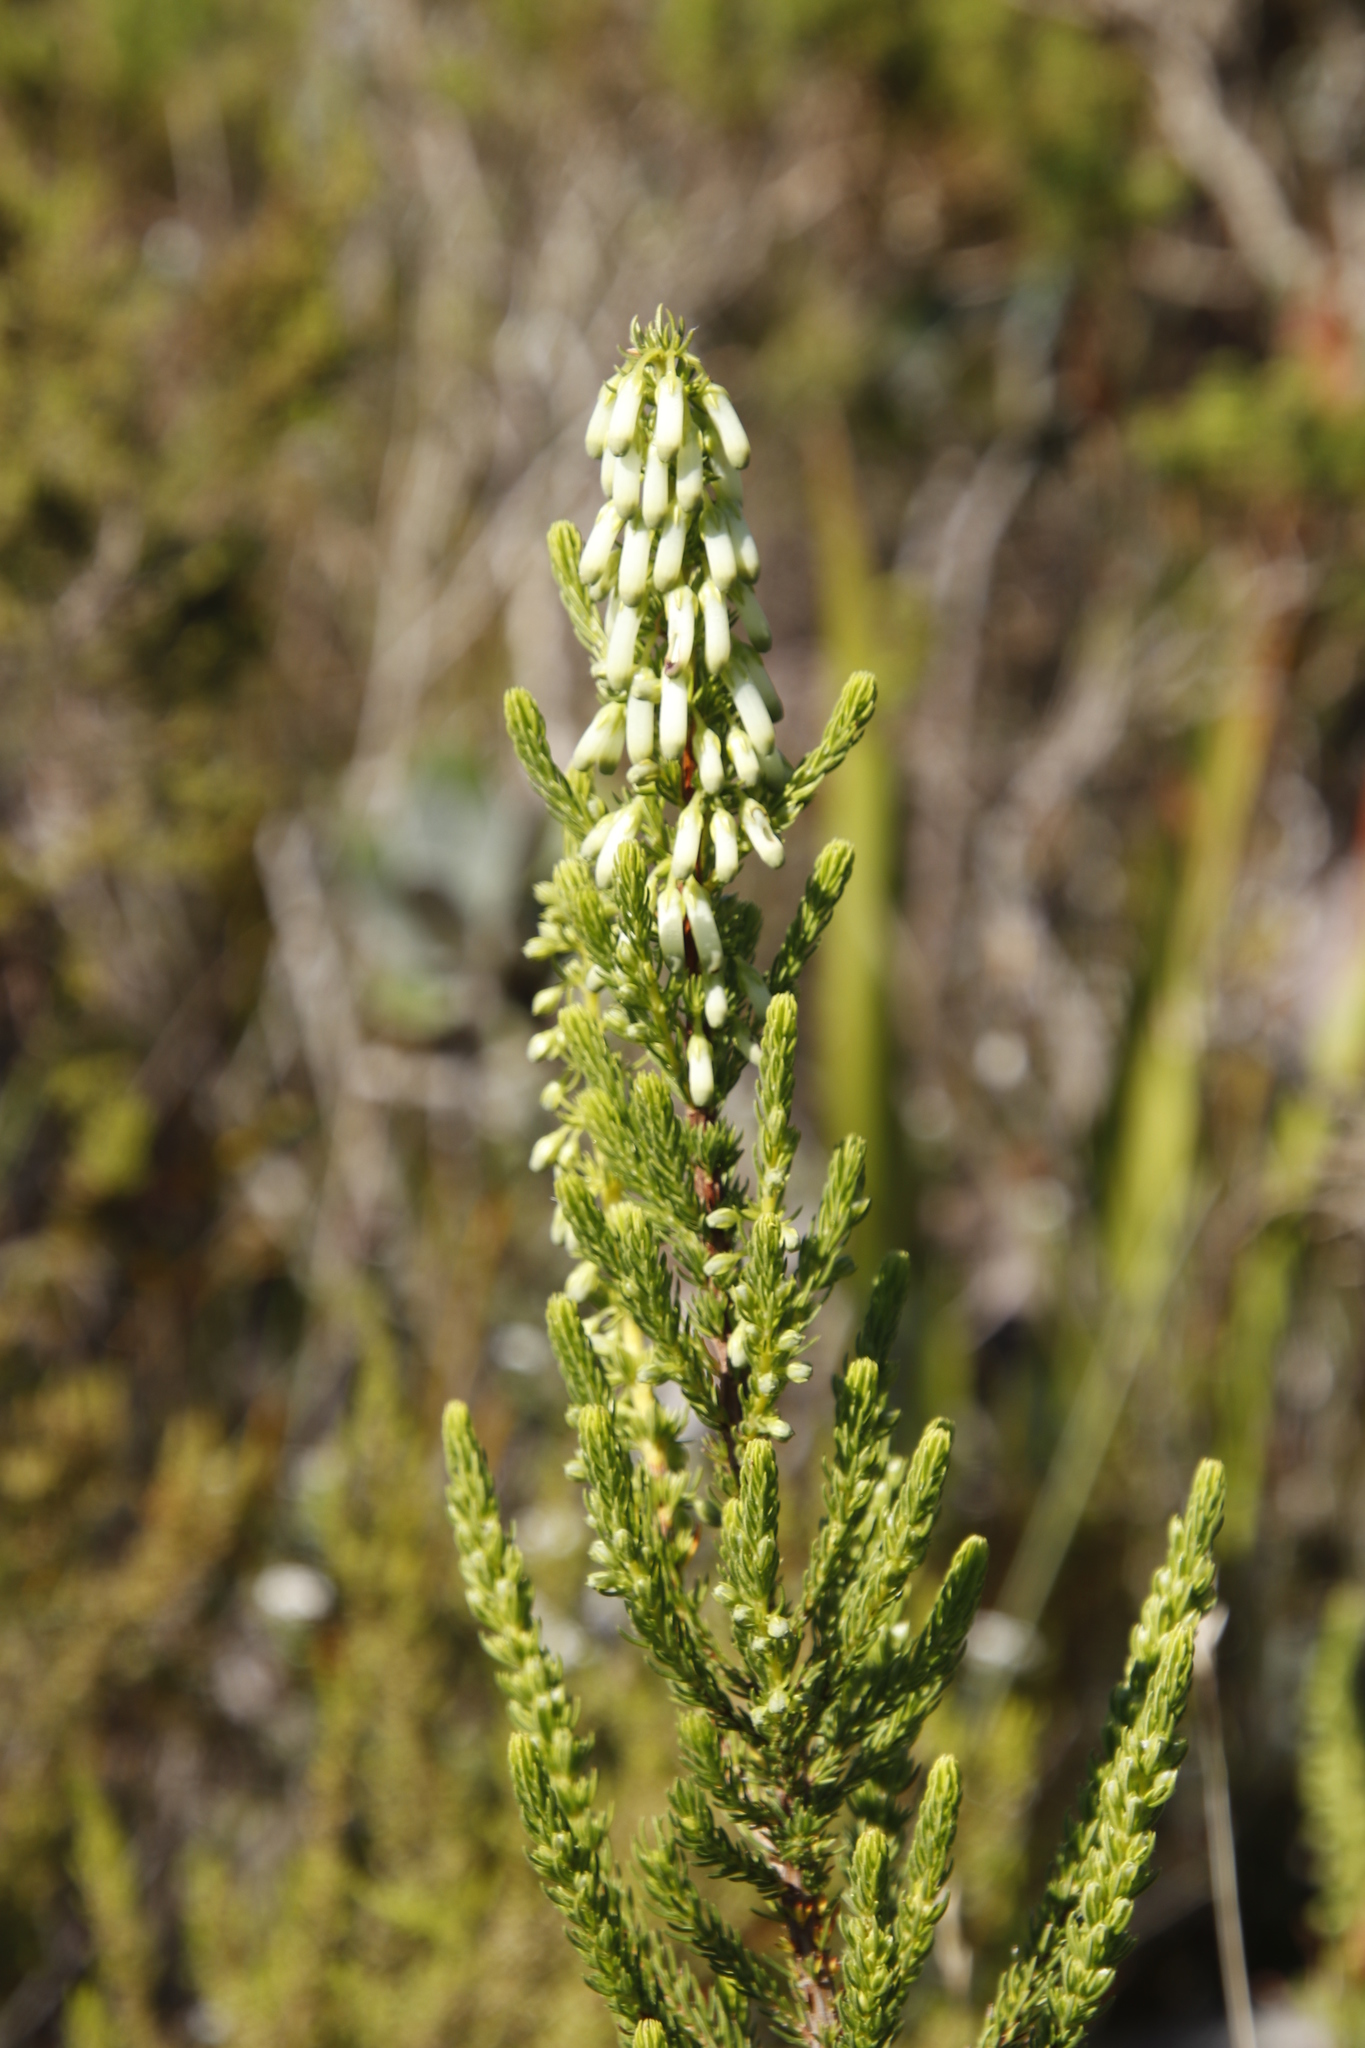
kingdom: Plantae
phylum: Tracheophyta
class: Magnoliopsida
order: Ericales
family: Ericaceae
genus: Erica
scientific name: Erica mammosa
